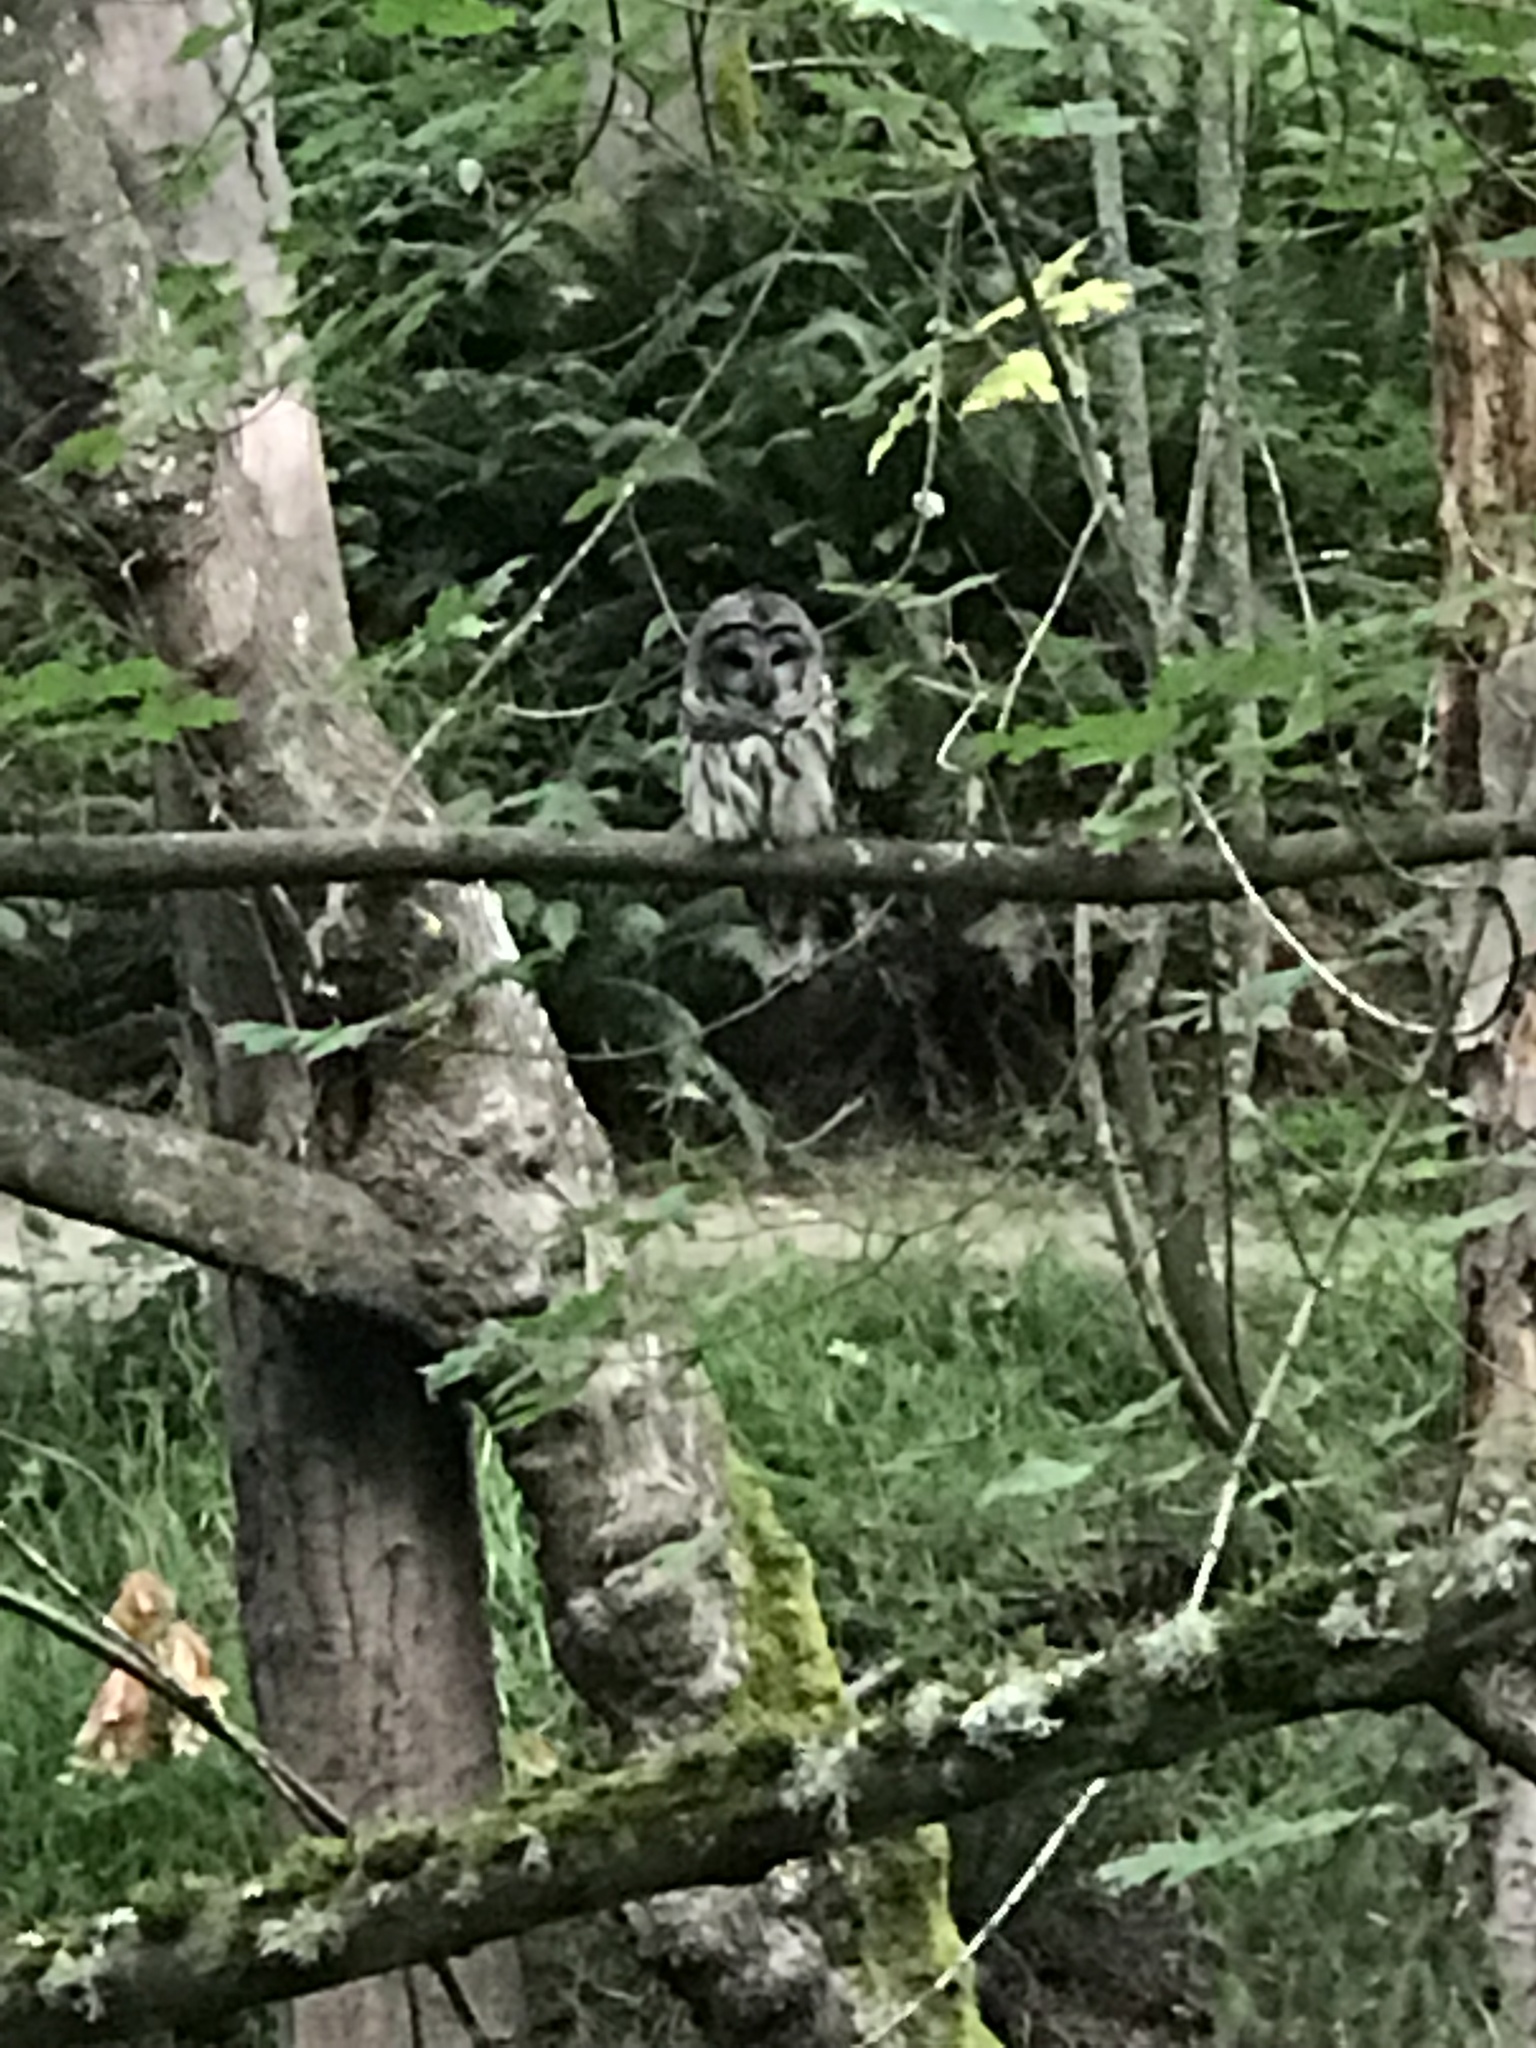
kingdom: Animalia
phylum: Chordata
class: Aves
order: Strigiformes
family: Strigidae
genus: Strix
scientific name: Strix varia
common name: Barred owl
